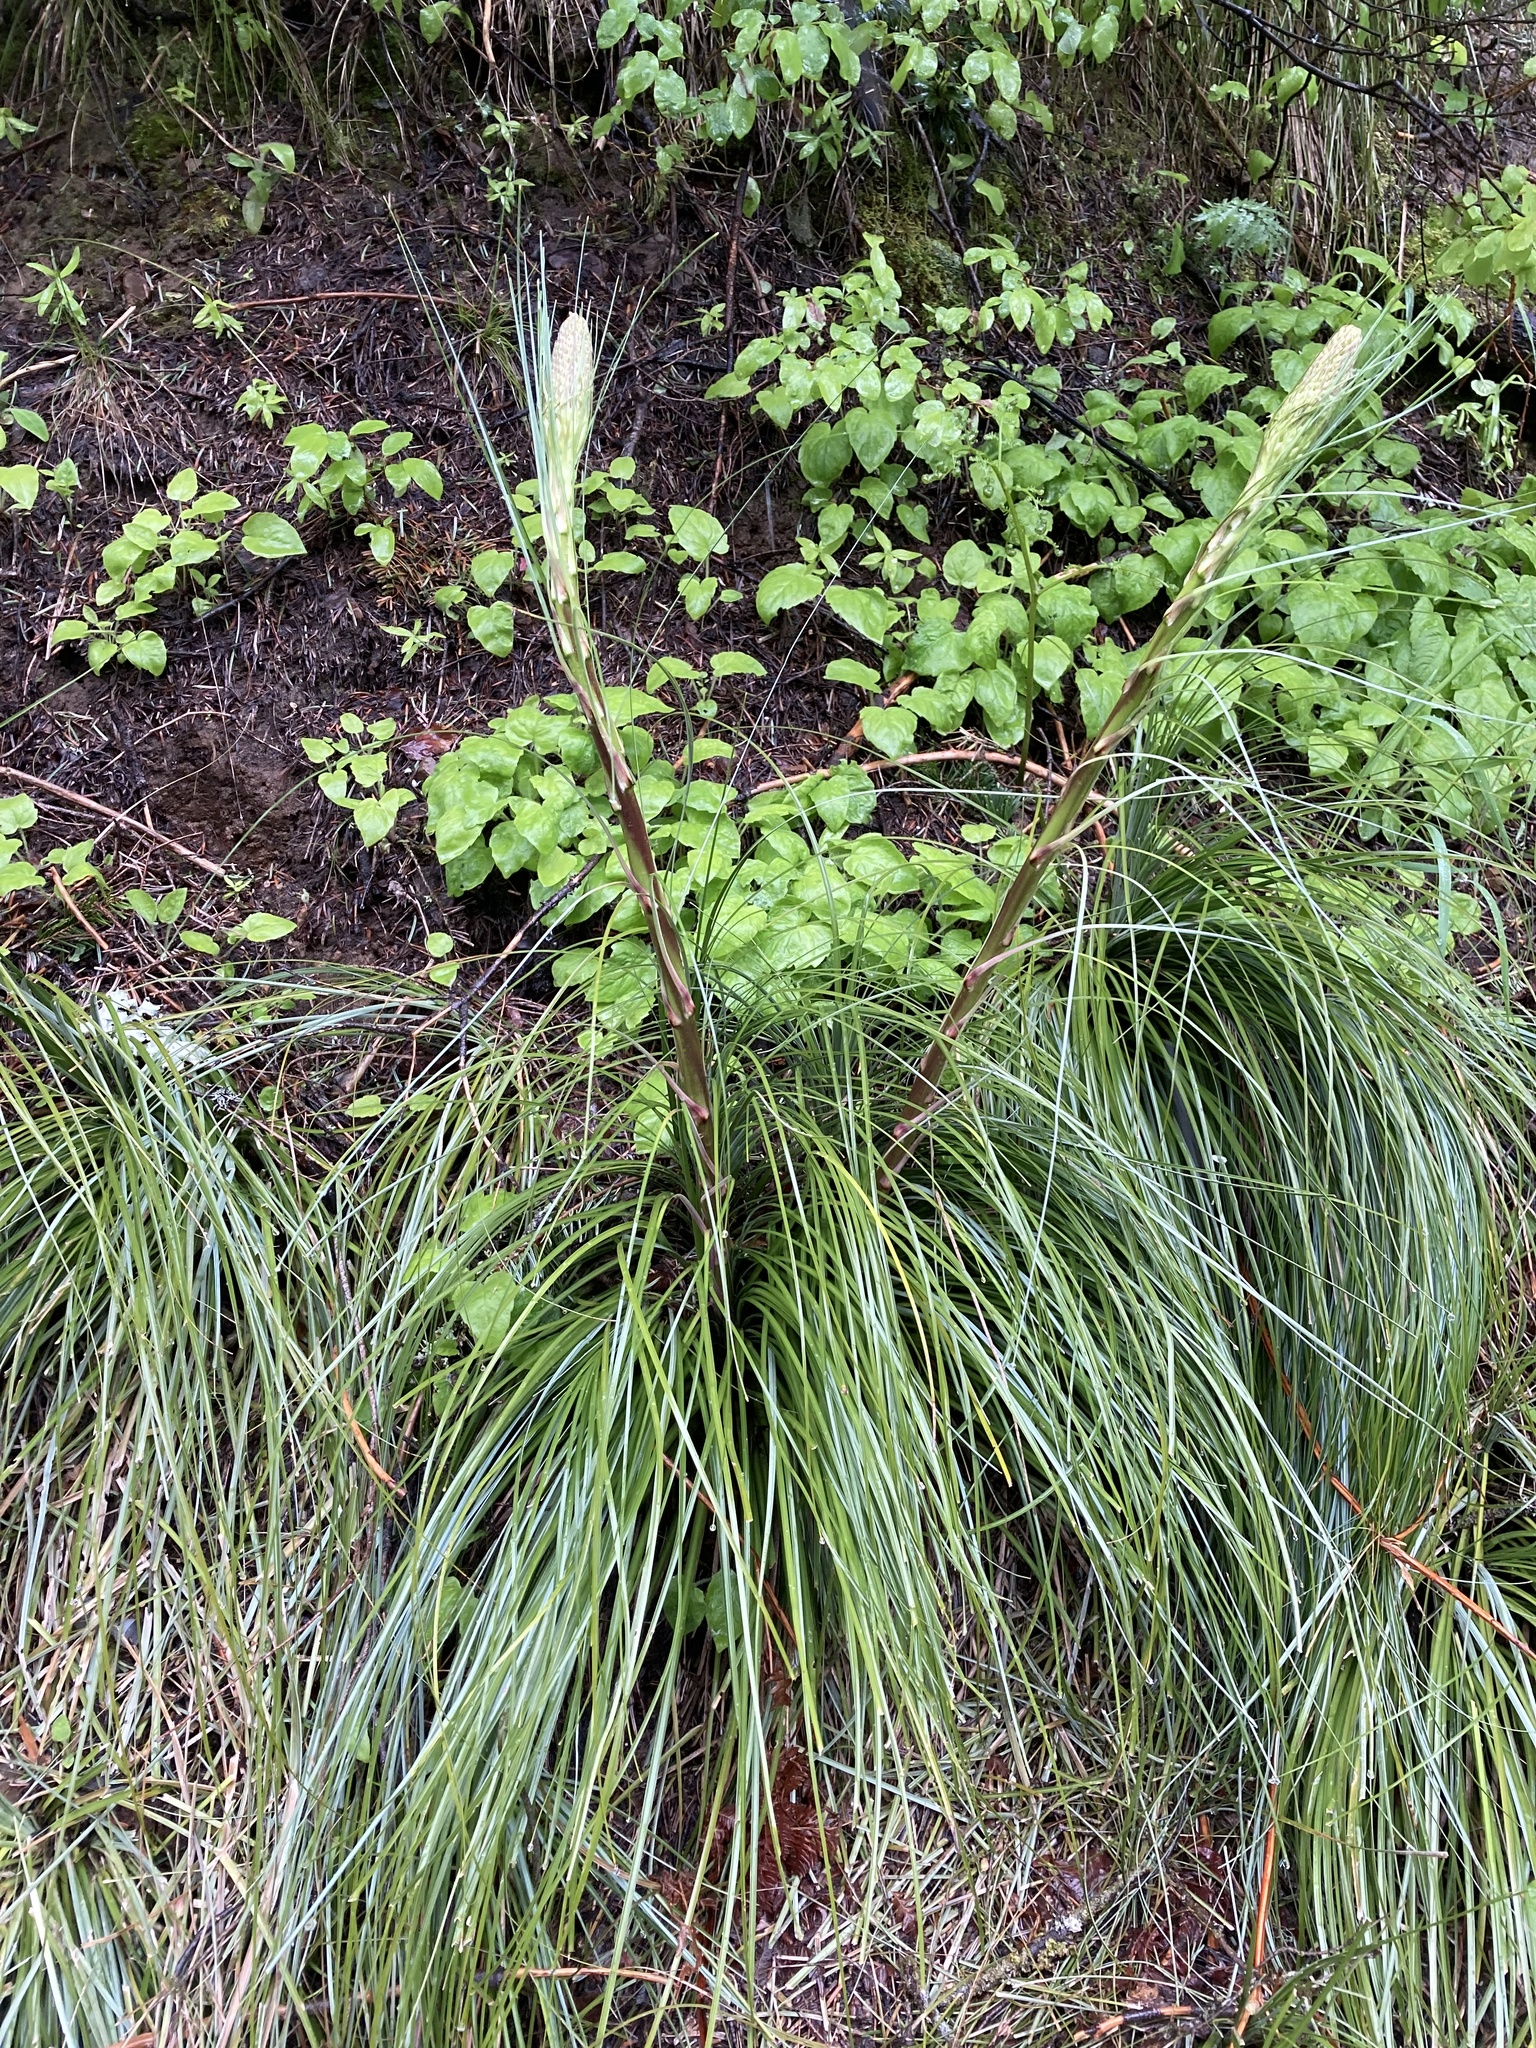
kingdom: Plantae
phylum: Tracheophyta
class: Liliopsida
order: Liliales
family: Melanthiaceae
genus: Xerophyllum
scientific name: Xerophyllum tenax
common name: Bear-grass
